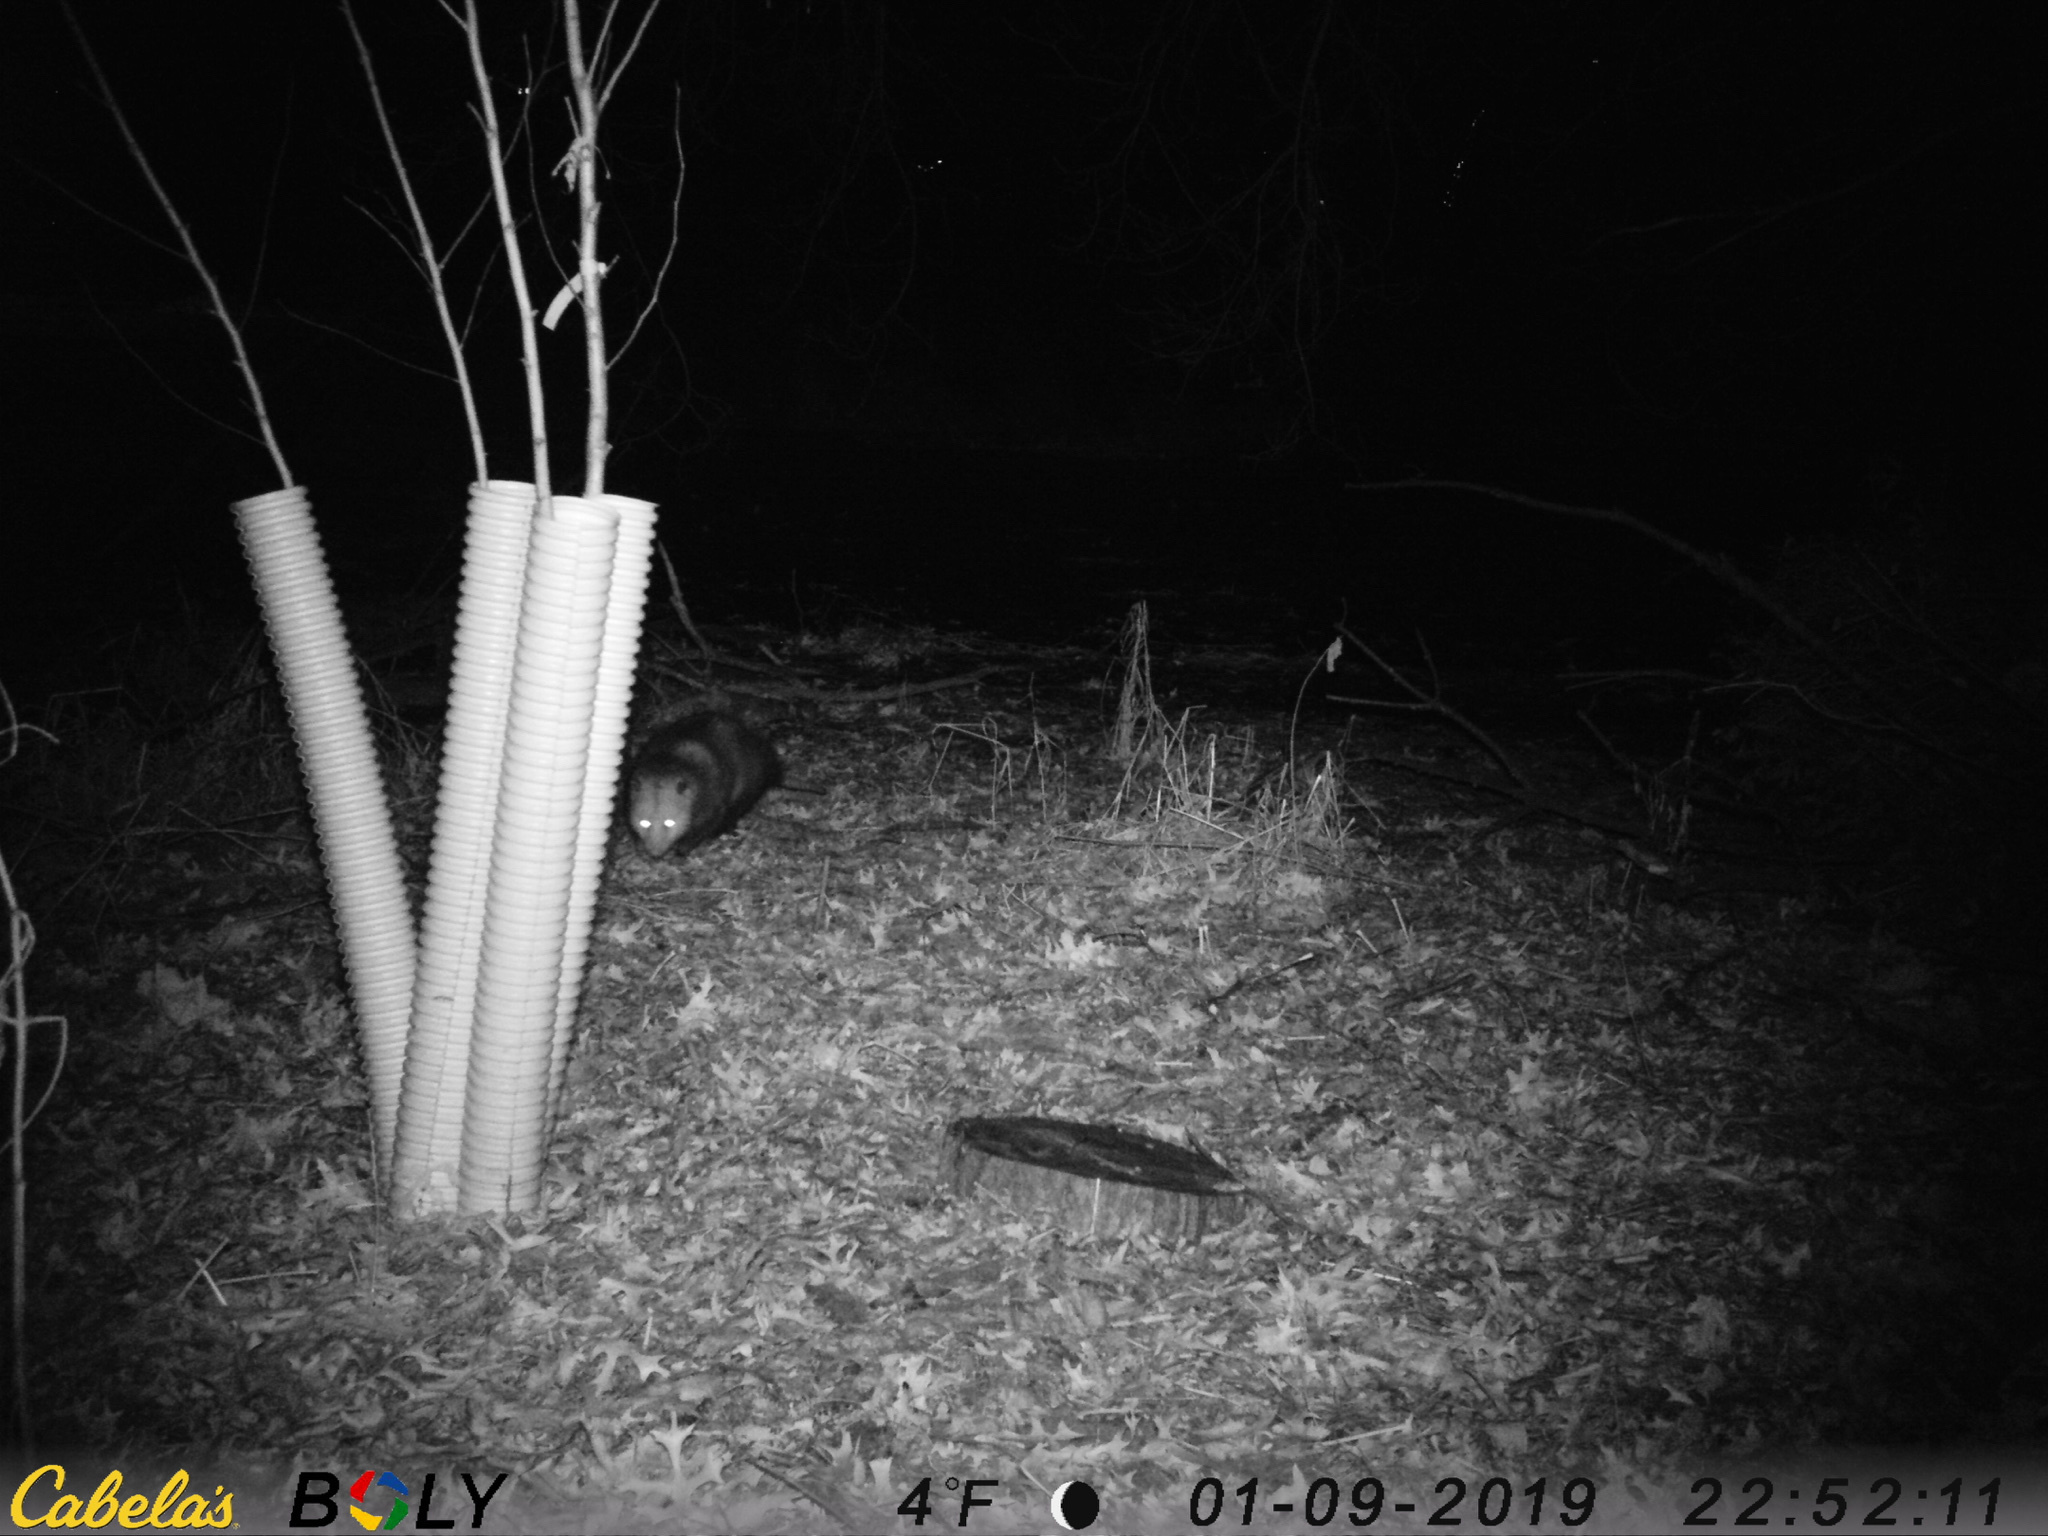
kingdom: Animalia
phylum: Chordata
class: Mammalia
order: Didelphimorphia
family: Didelphidae
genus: Didelphis
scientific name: Didelphis virginiana
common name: Virginia opossum
